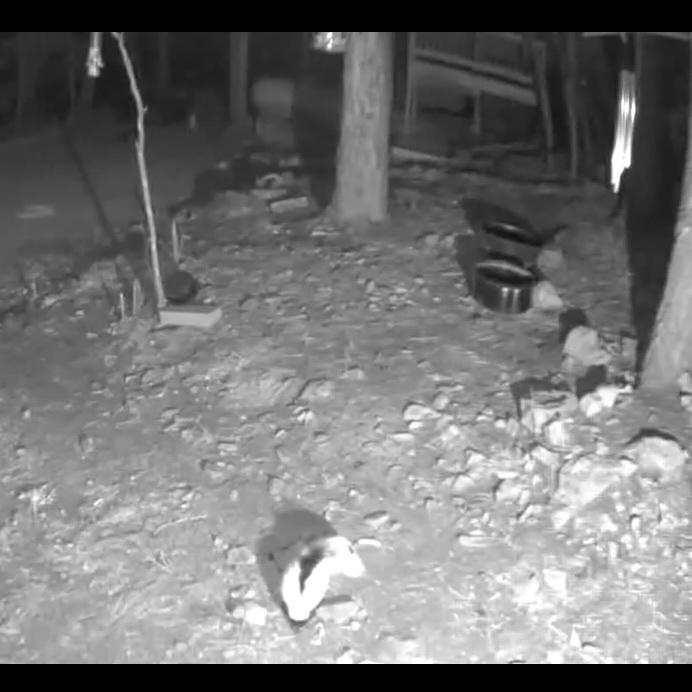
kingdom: Animalia
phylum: Chordata
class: Mammalia
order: Carnivora
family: Mephitidae
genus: Mephitis
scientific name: Mephitis mephitis
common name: Striped skunk
